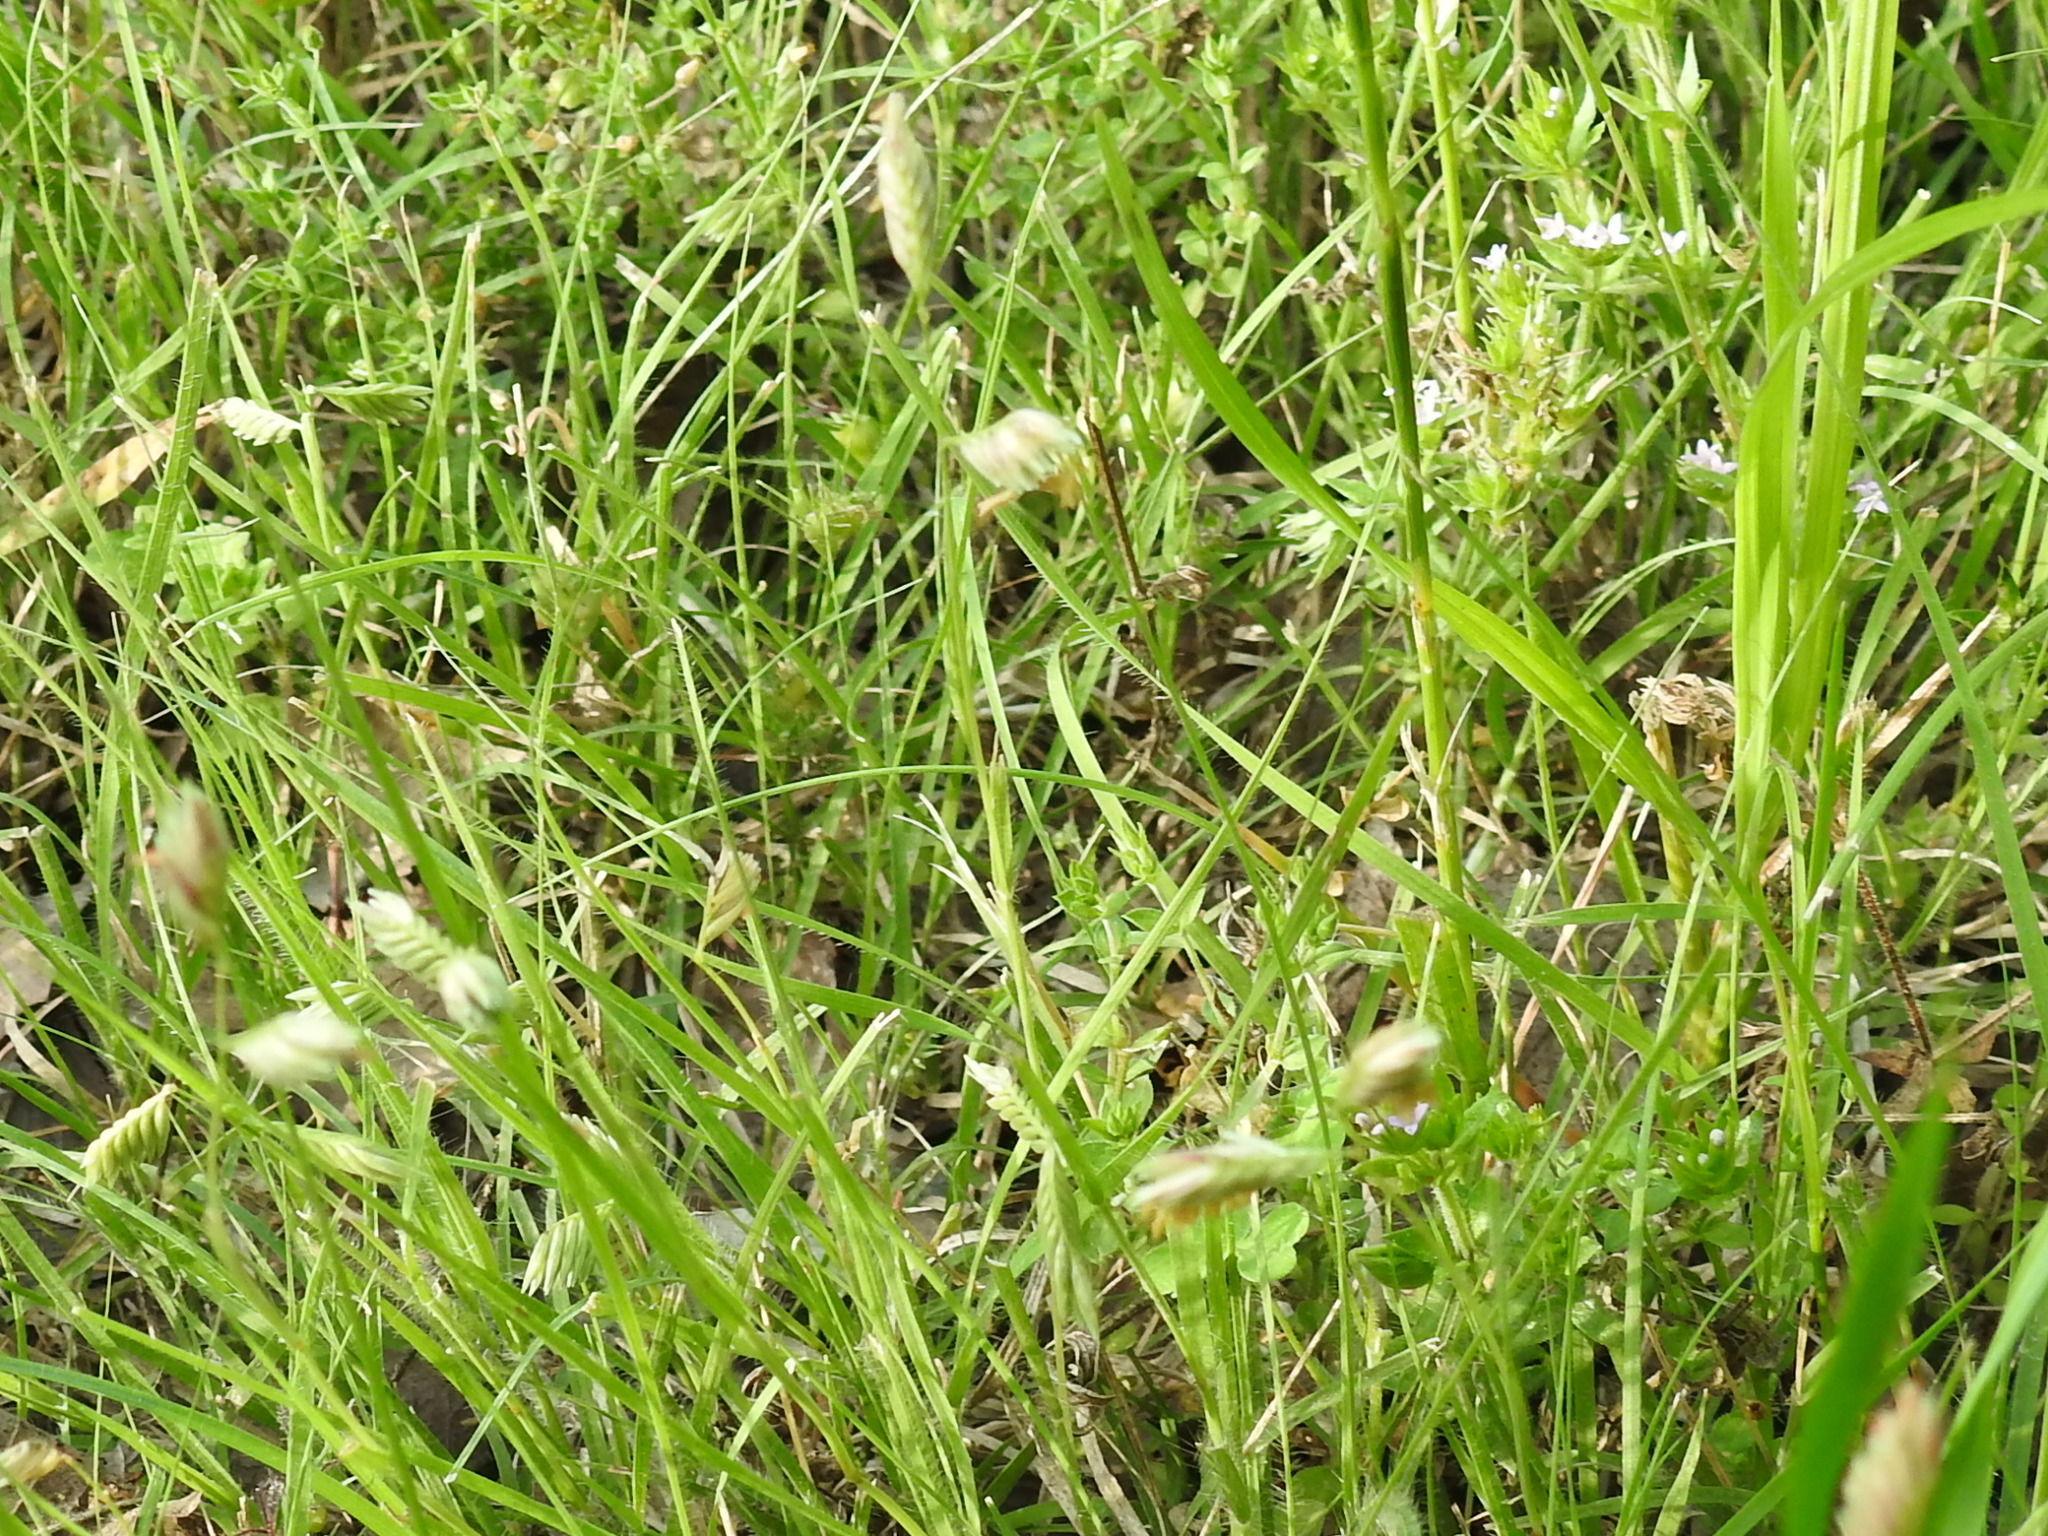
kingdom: Plantae
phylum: Tracheophyta
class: Liliopsida
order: Poales
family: Poaceae
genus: Bouteloua
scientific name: Bouteloua dactyloides
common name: Buffalo grass
